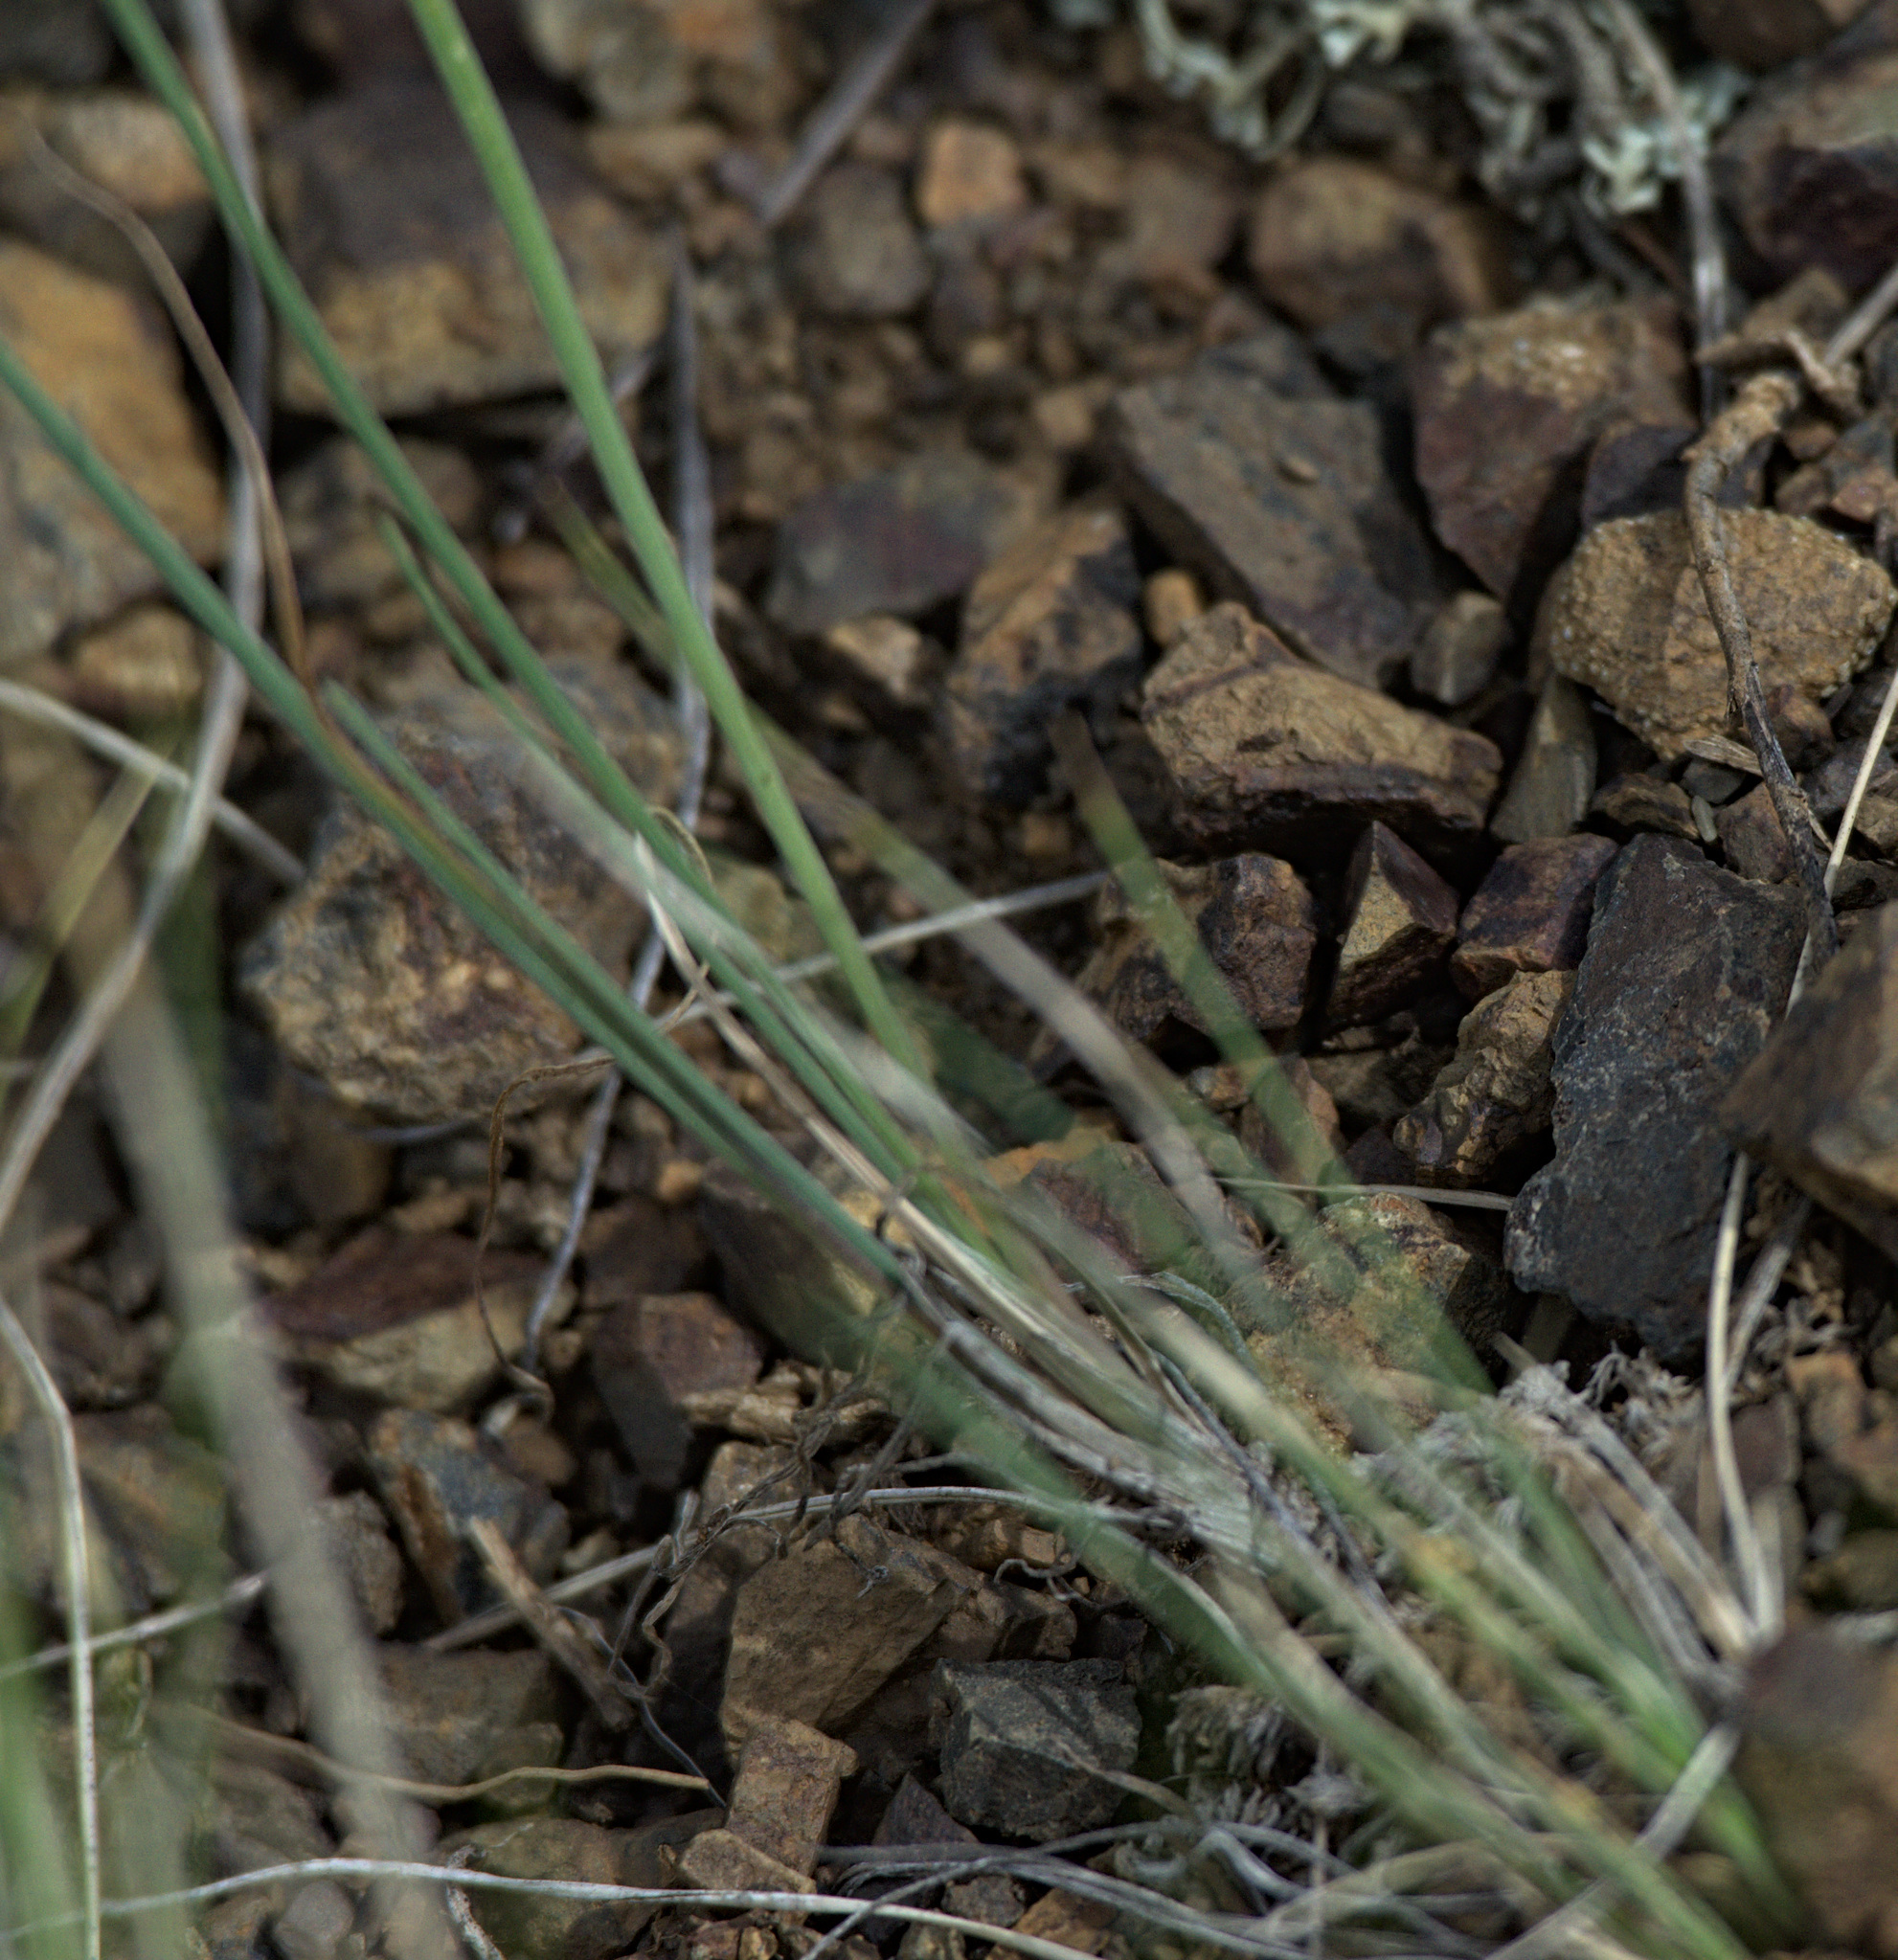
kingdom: Plantae
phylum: Tracheophyta
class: Liliopsida
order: Asparagales
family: Amaryllidaceae
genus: Allium
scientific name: Allium vodopjanovae
